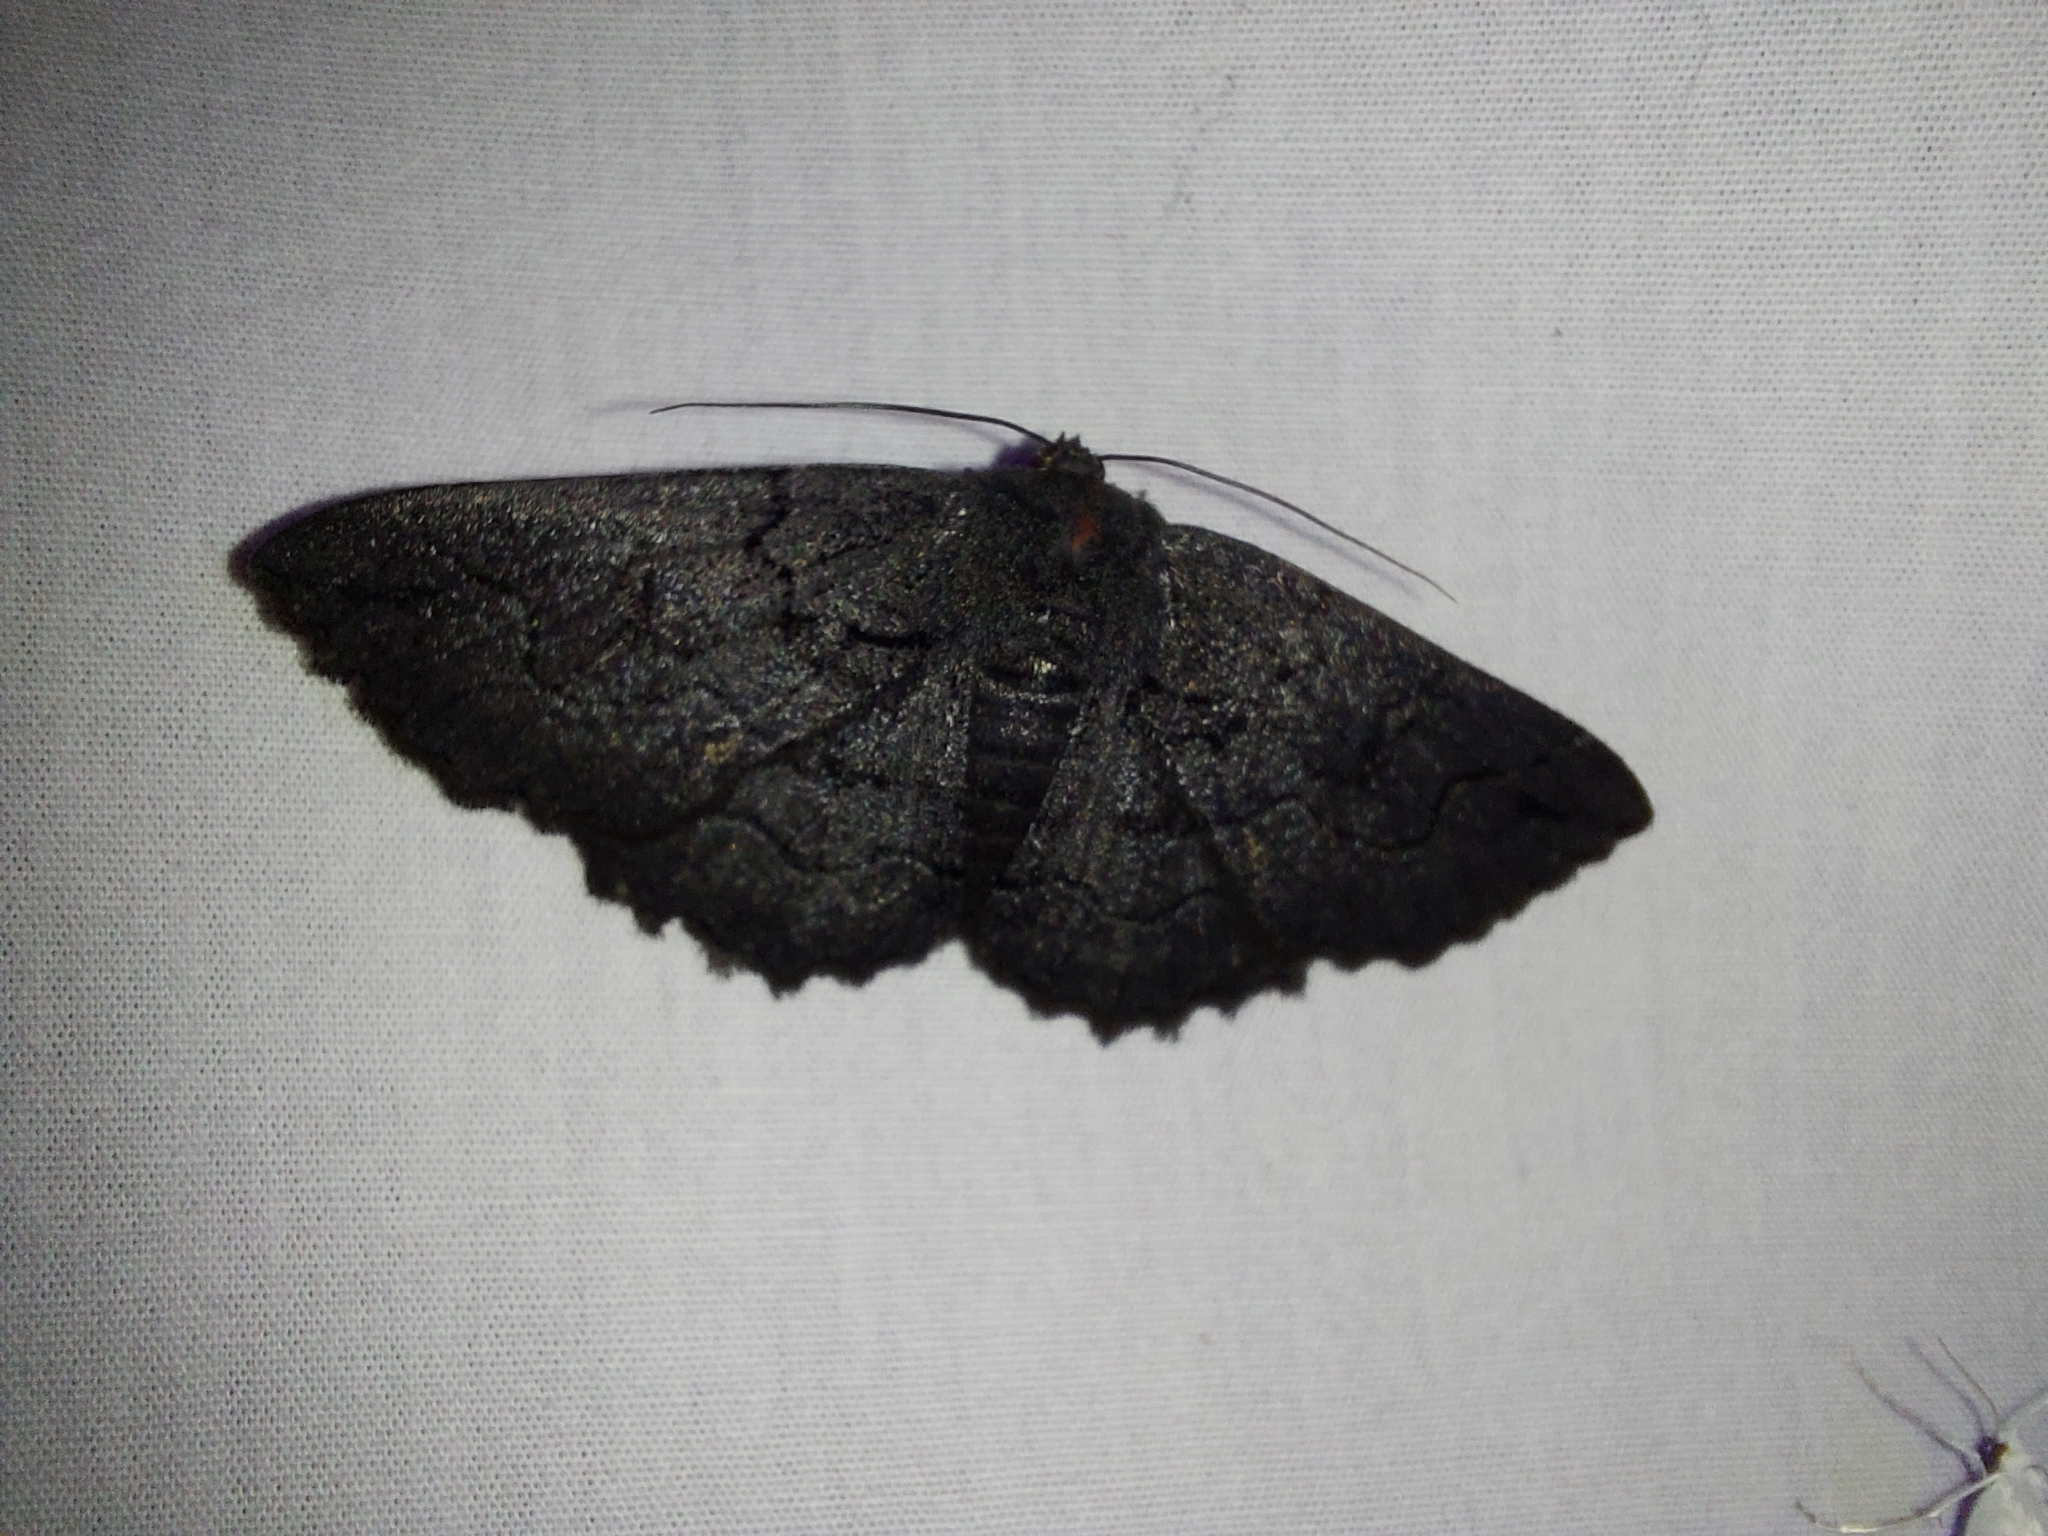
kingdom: Animalia
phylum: Arthropoda
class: Insecta
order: Lepidoptera
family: Geometridae
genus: Melanodes
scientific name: Melanodes anthracitaria
